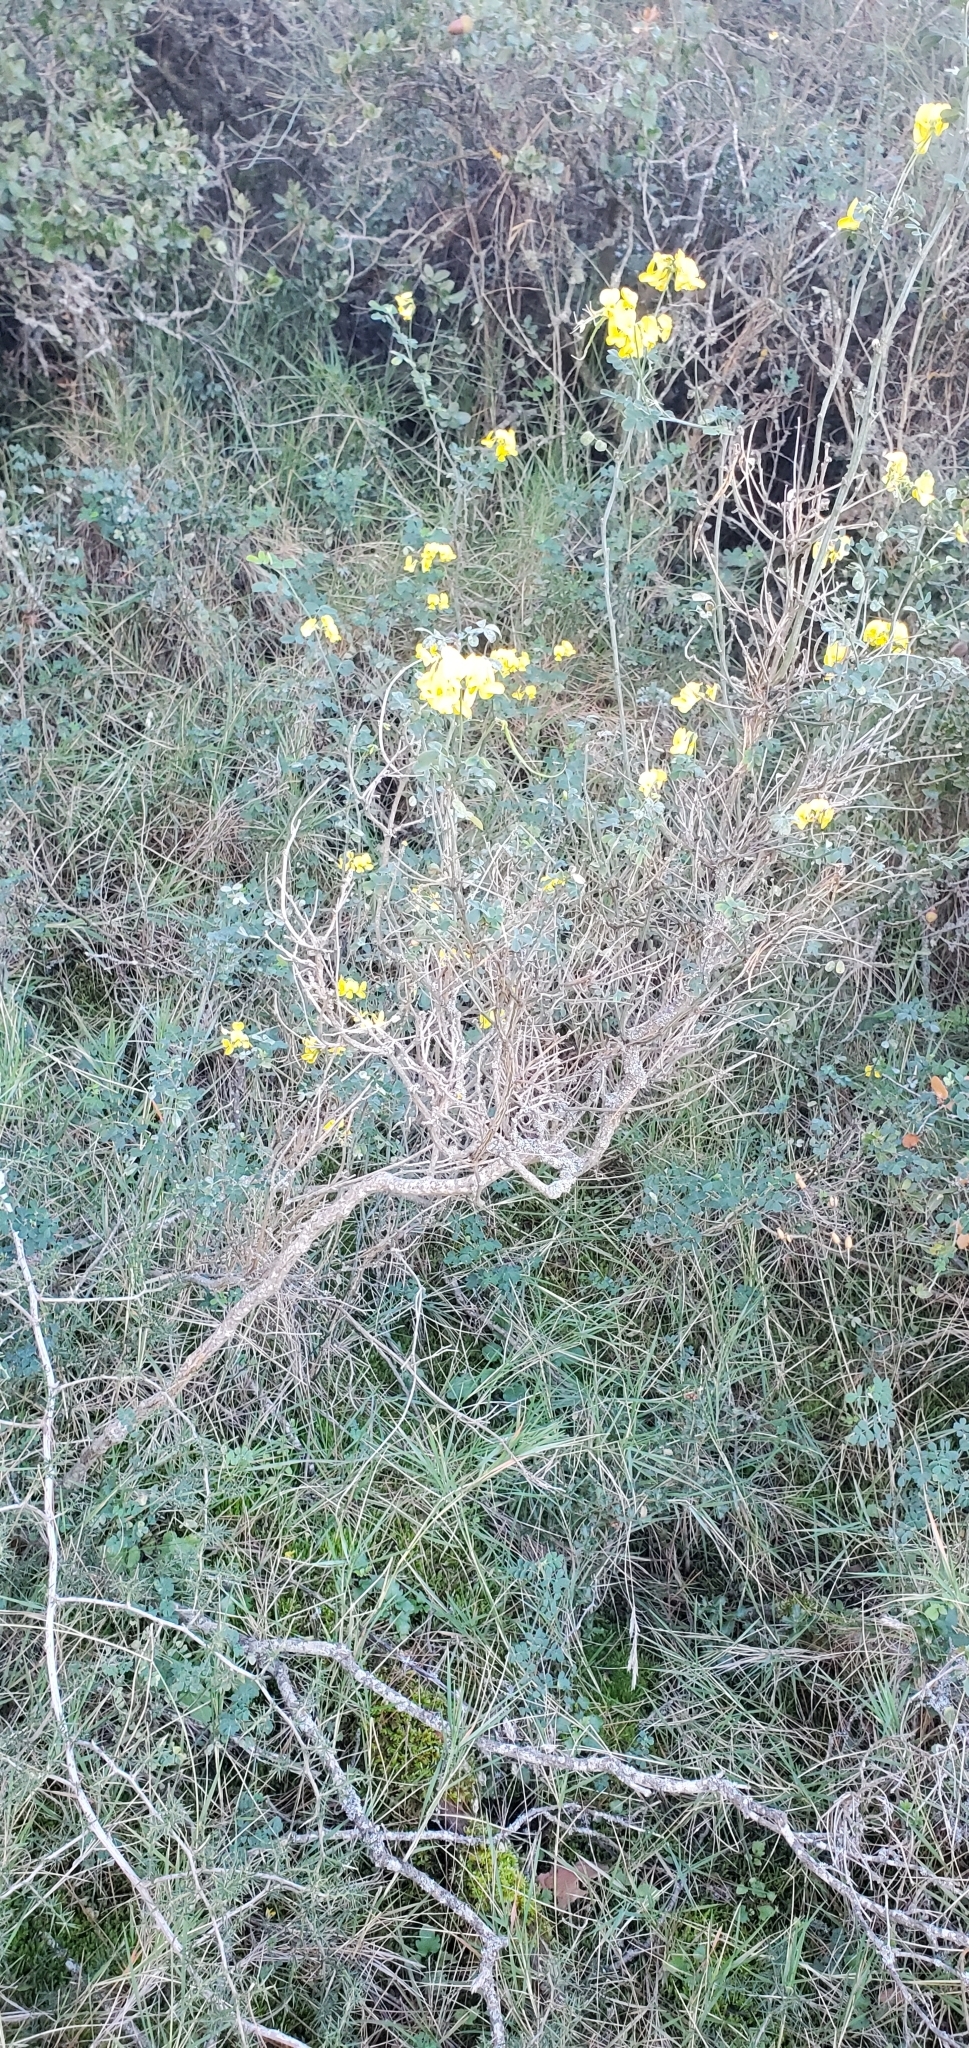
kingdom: Plantae
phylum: Tracheophyta
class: Magnoliopsida
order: Fabales
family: Fabaceae
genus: Hippocrepis
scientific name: Hippocrepis emerus
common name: Scorpion senna
